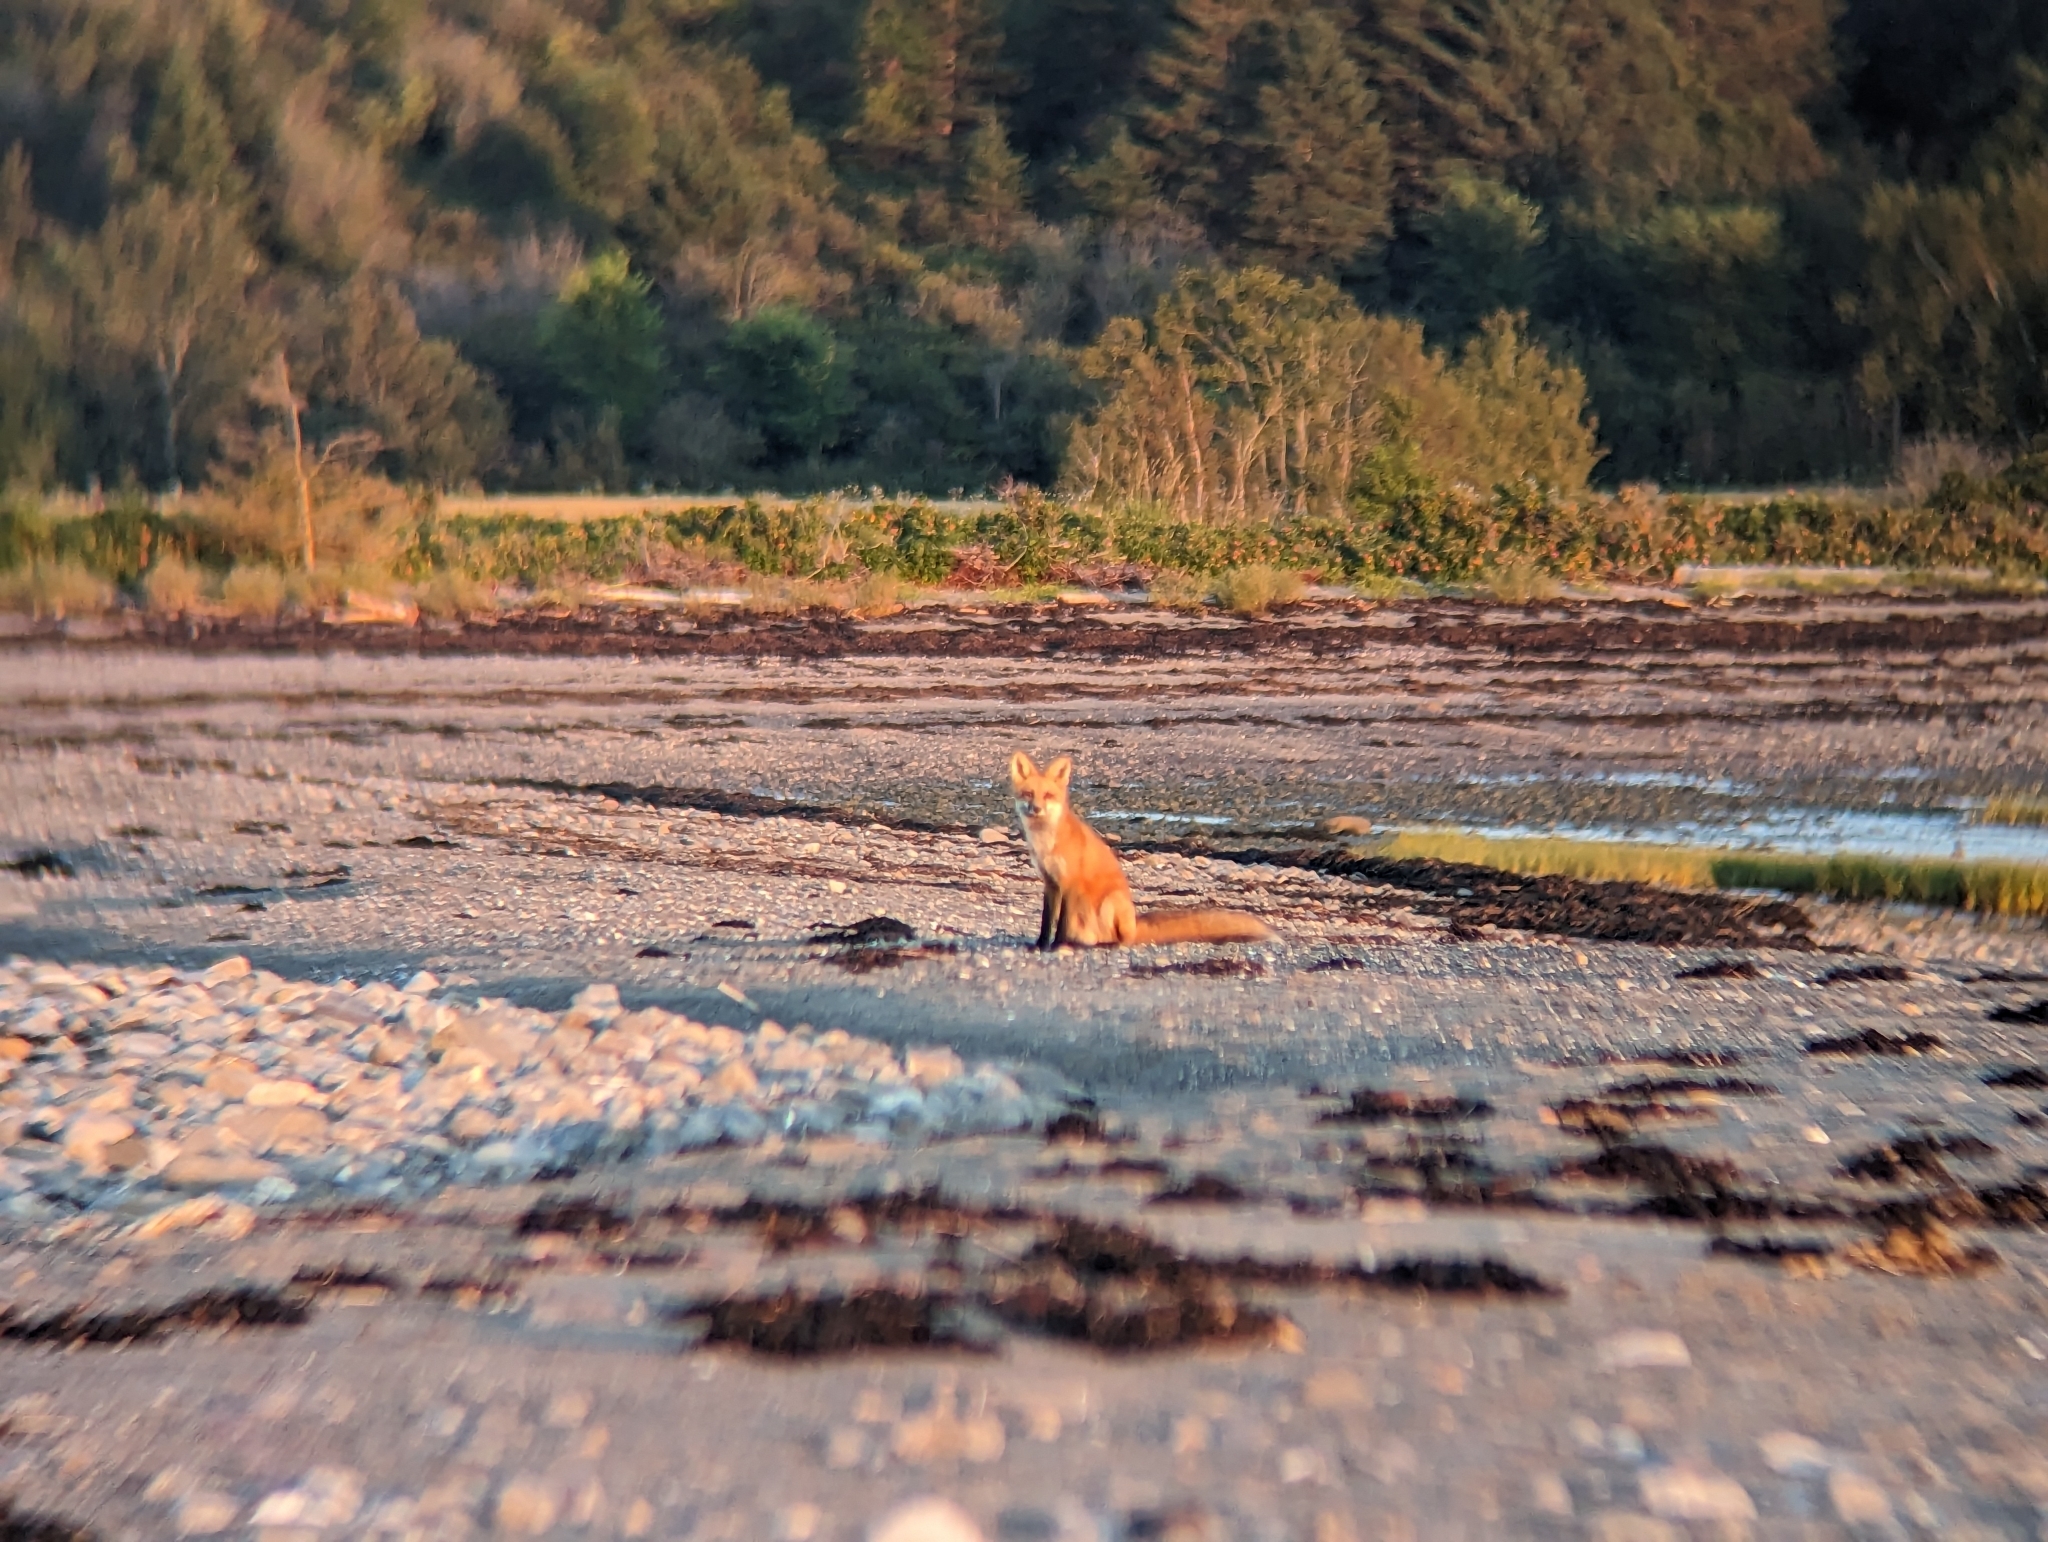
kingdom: Animalia
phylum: Chordata
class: Mammalia
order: Carnivora
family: Canidae
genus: Vulpes
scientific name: Vulpes vulpes
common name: Red fox
